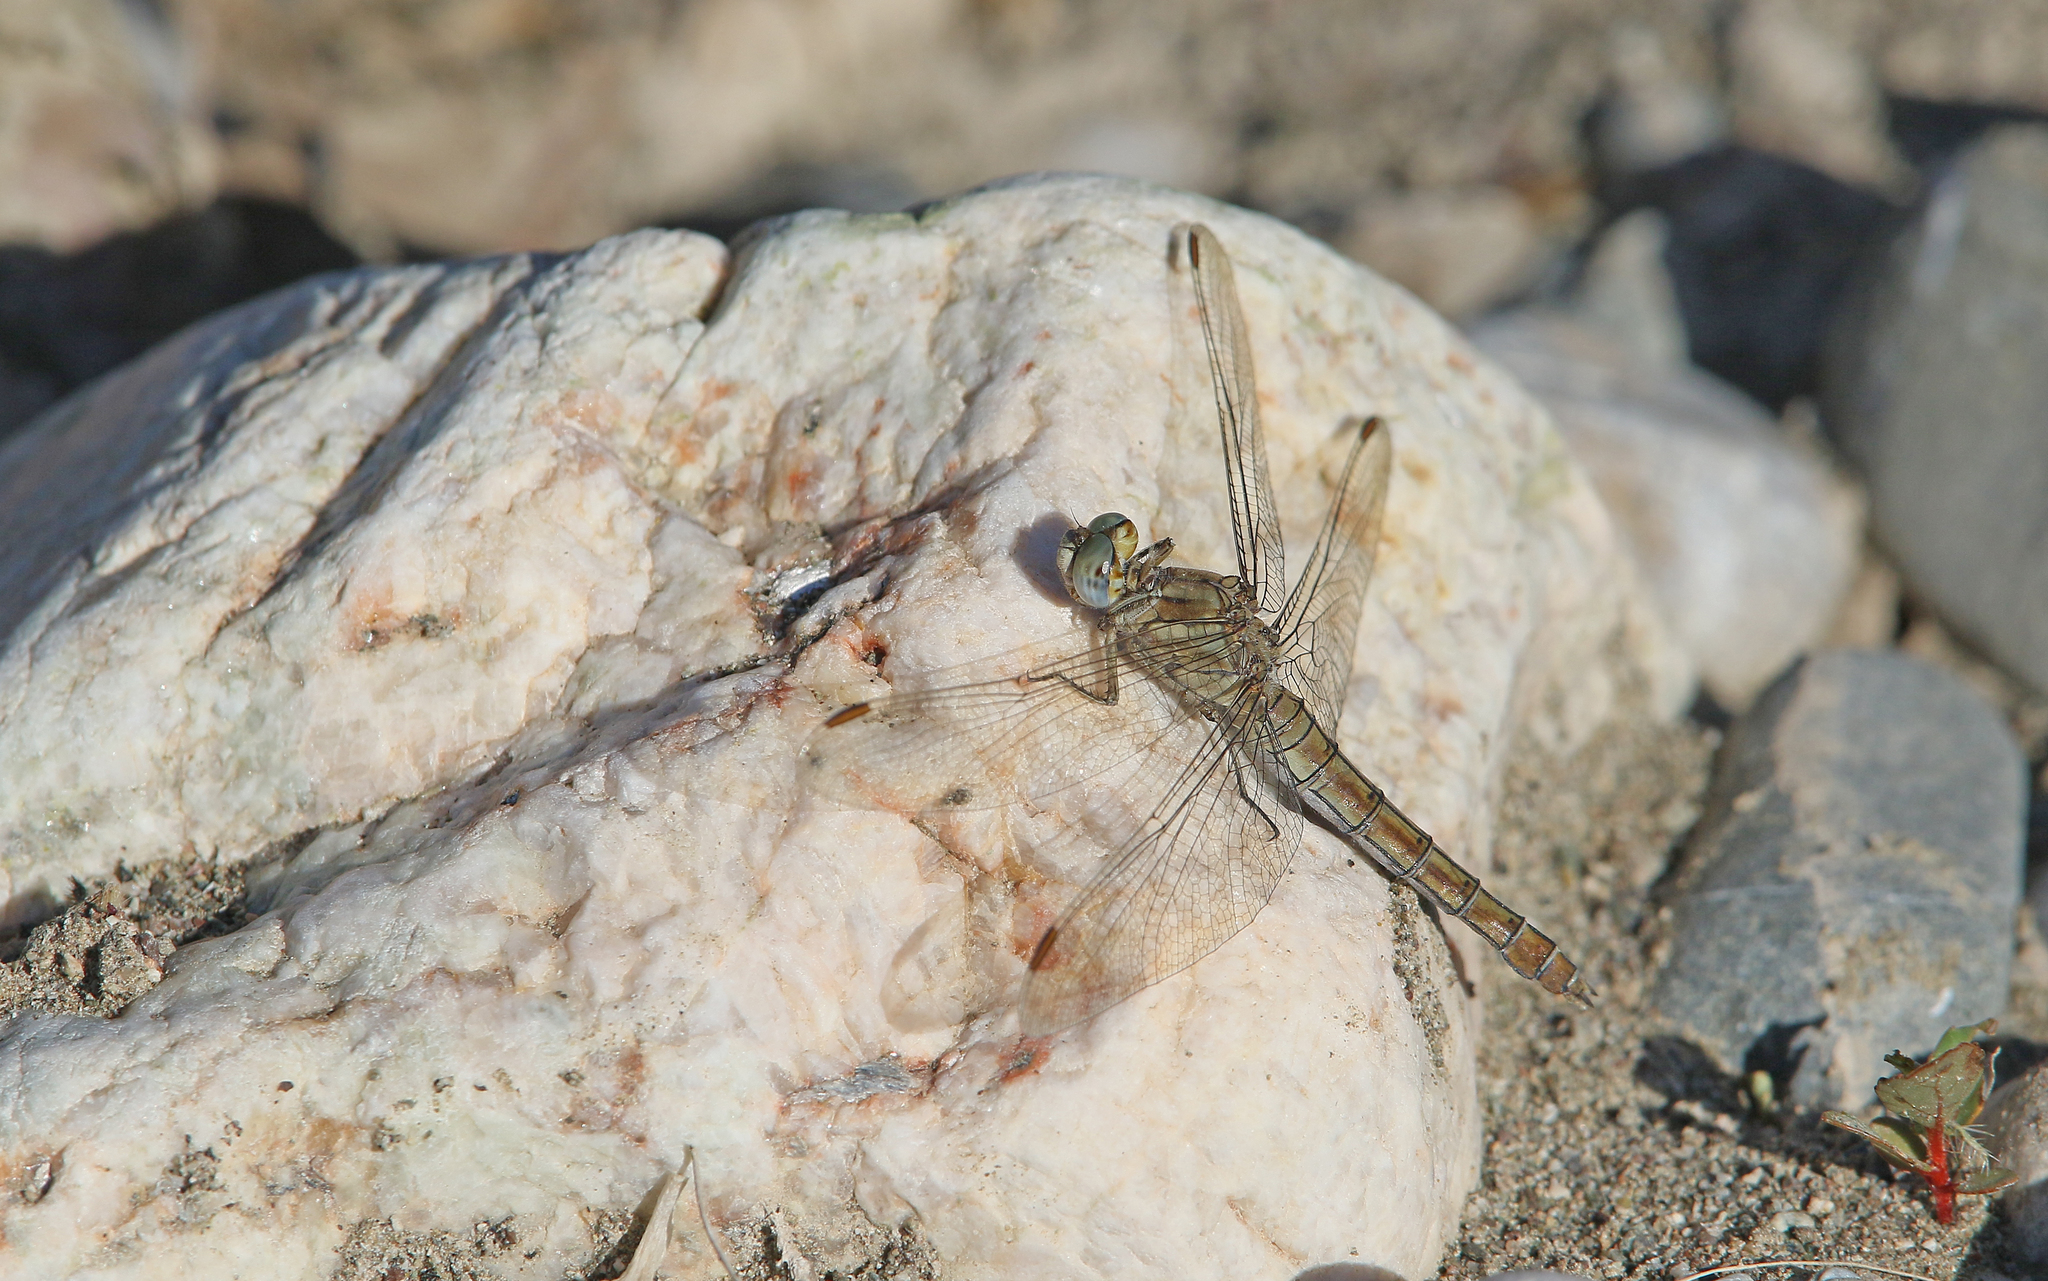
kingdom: Animalia
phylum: Arthropoda
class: Insecta
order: Odonata
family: Libellulidae
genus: Orthetrum
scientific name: Orthetrum brunneum
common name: Southern skimmer
